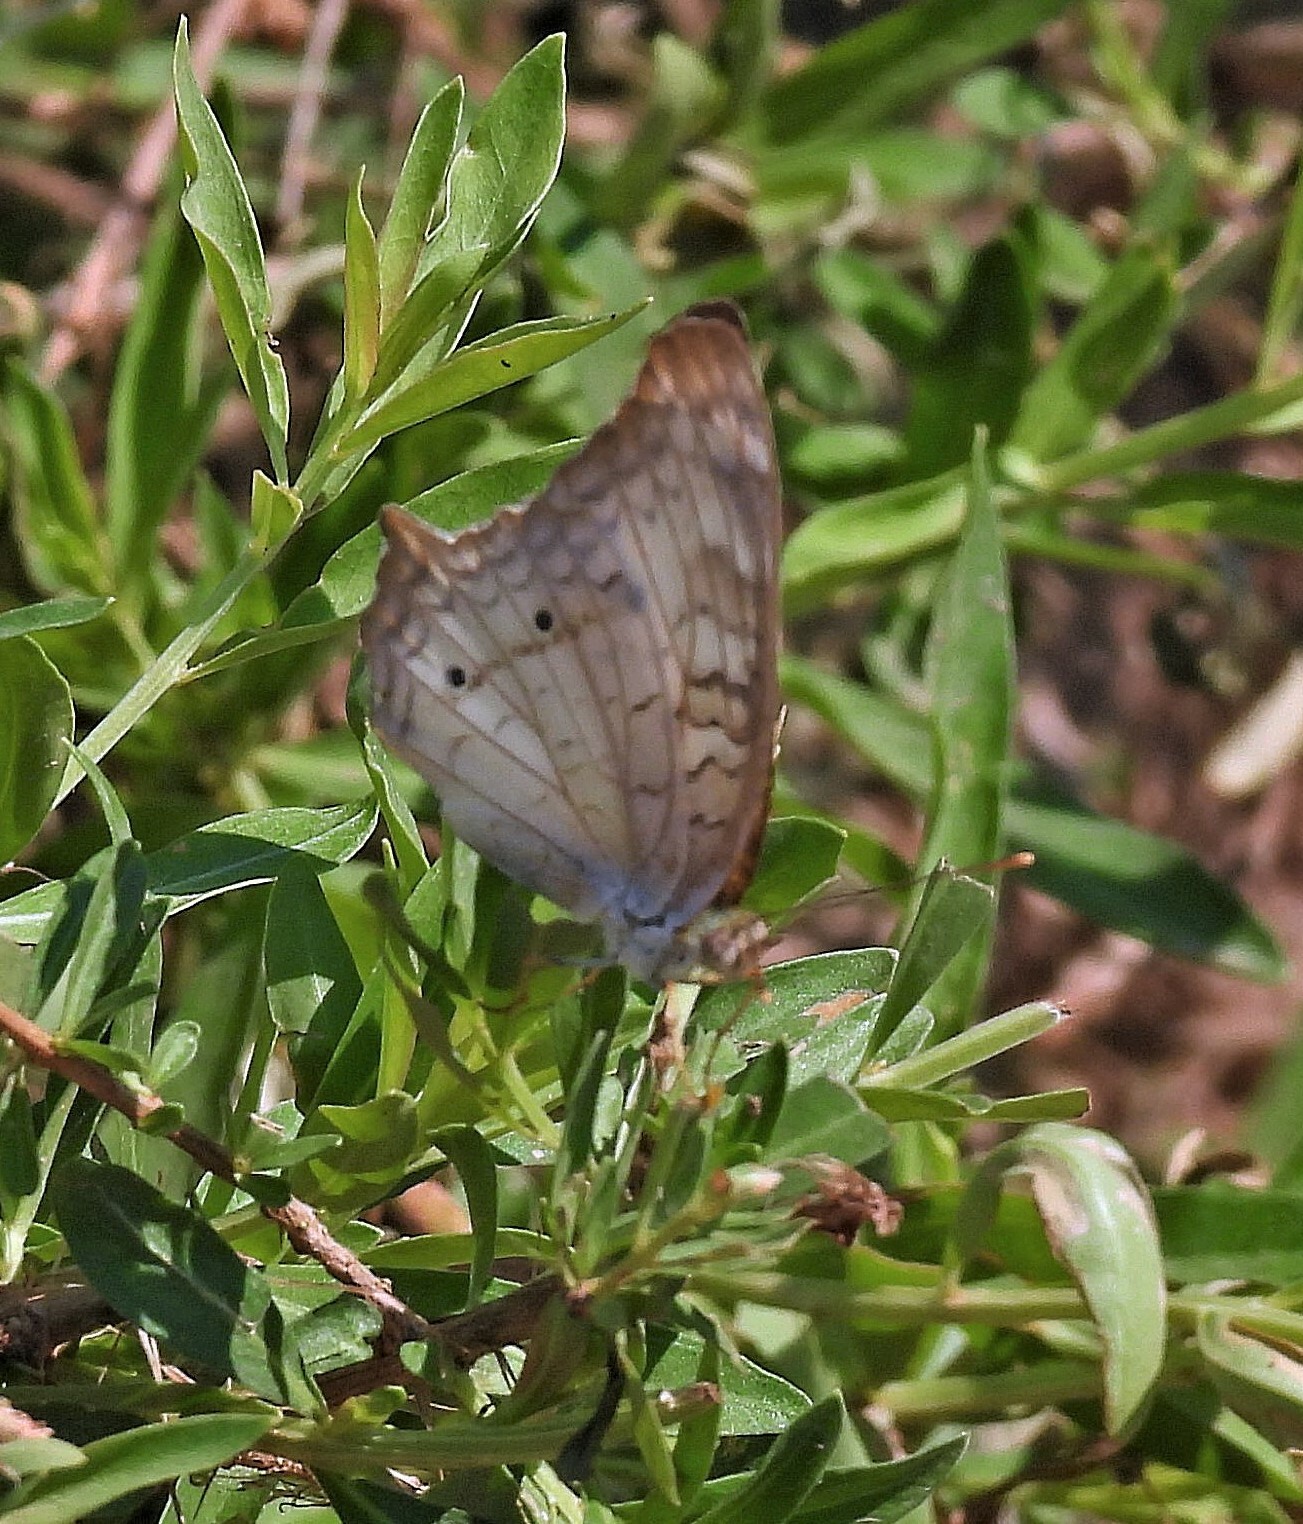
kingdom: Animalia
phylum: Arthropoda
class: Insecta
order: Lepidoptera
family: Nymphalidae
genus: Anartia
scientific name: Anartia jatrophae
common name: White peacock
